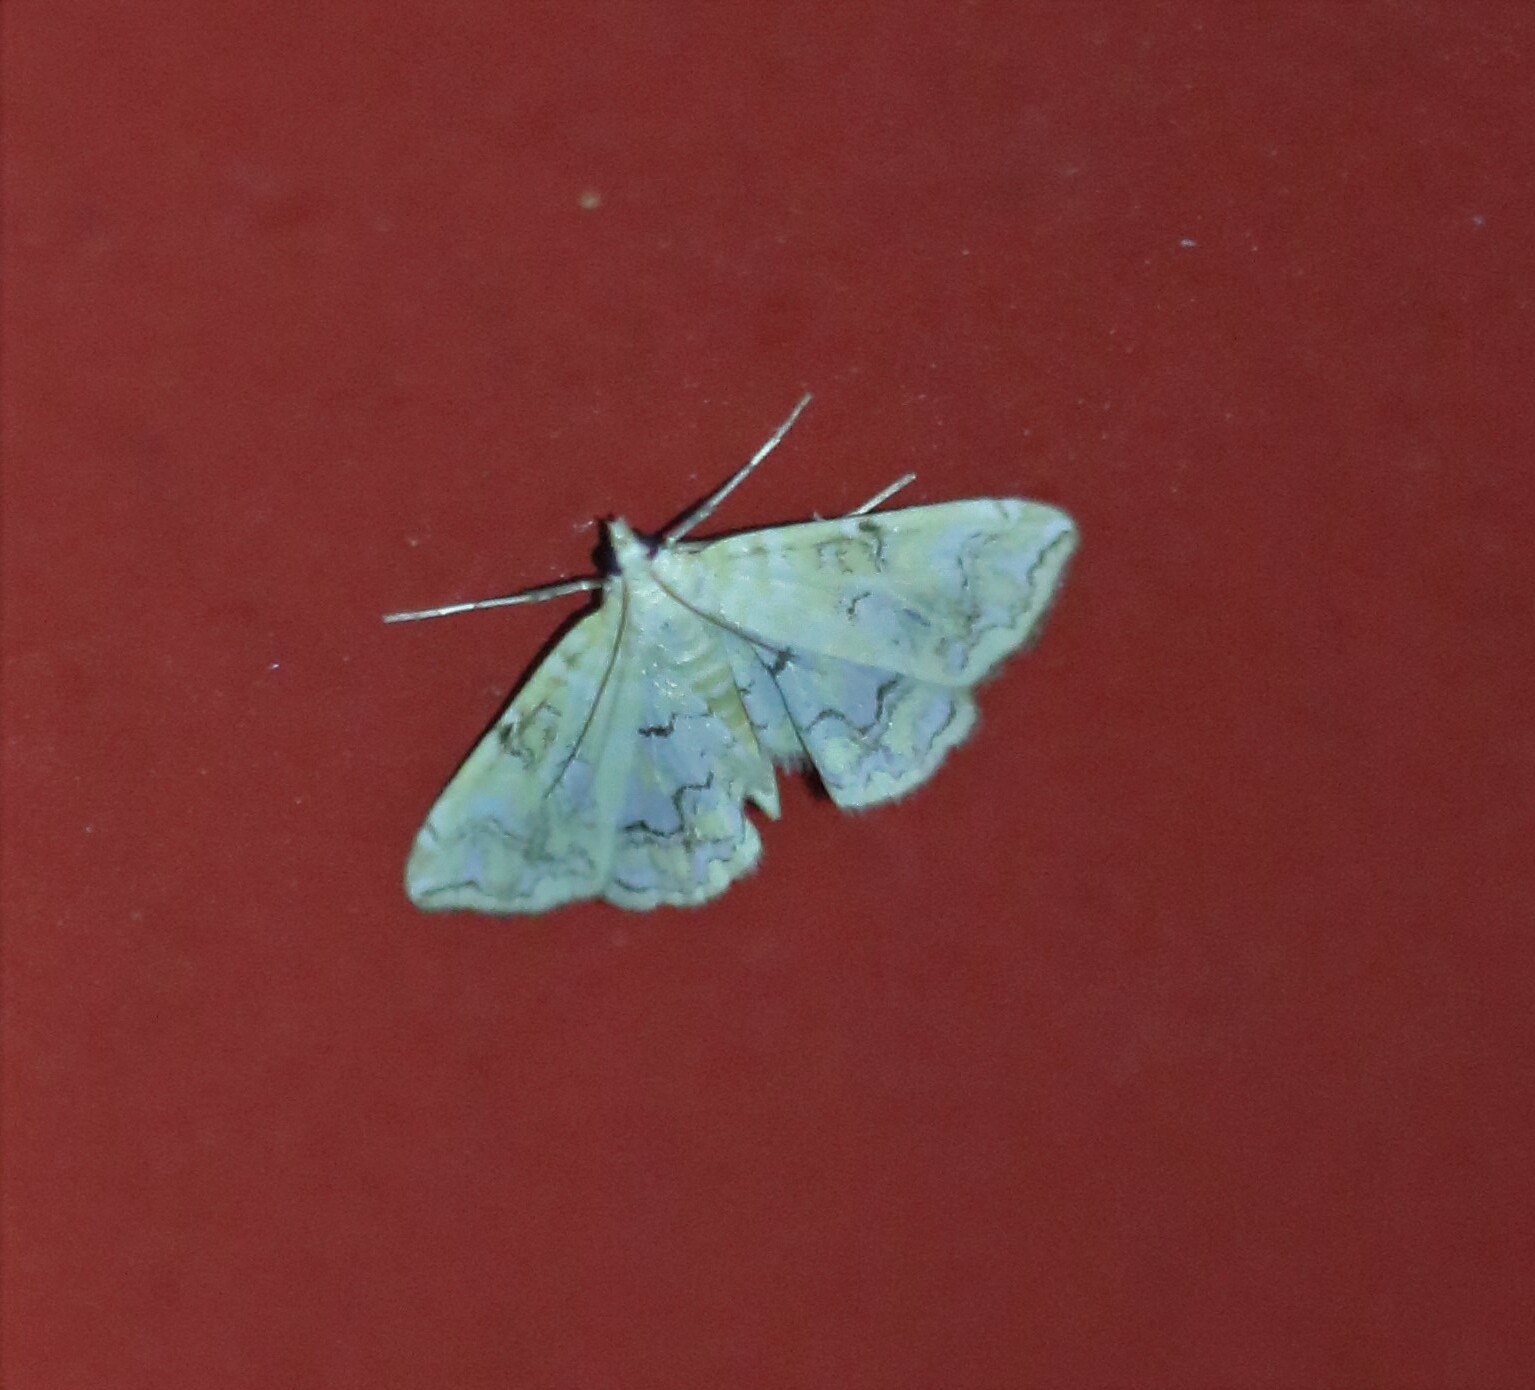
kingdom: Animalia
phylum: Arthropoda
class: Insecta
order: Lepidoptera
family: Crambidae
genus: Elophila
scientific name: Elophila icciusalis
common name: Pondside pyralid moth
